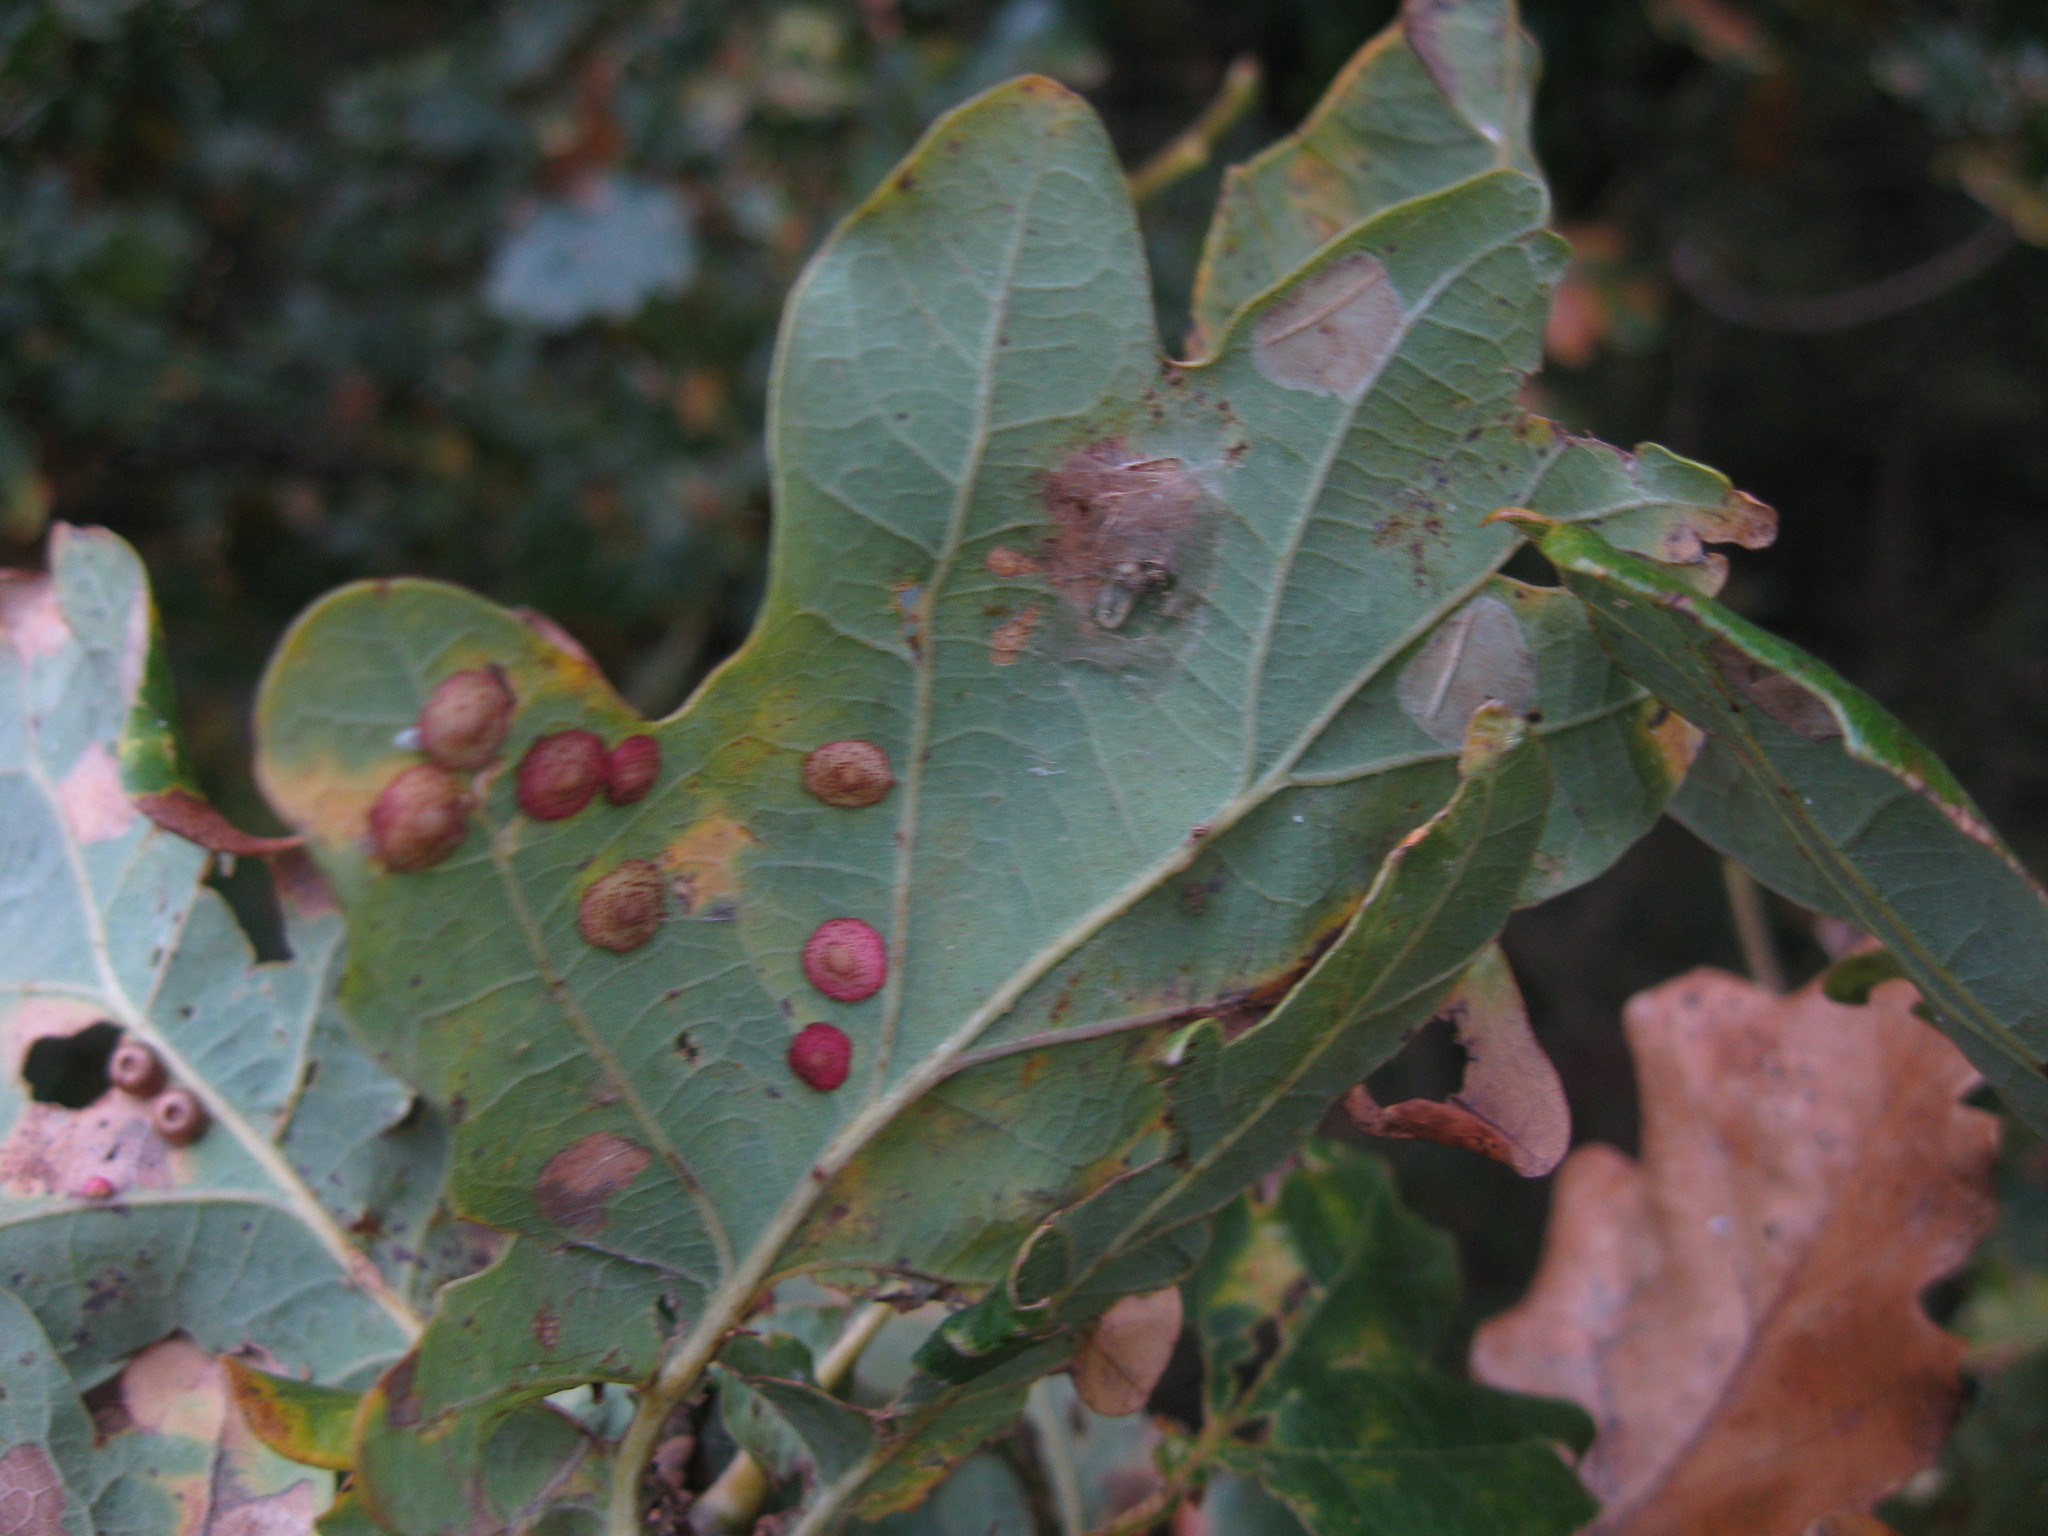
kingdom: Animalia
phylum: Arthropoda
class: Insecta
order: Hymenoptera
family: Cynipidae
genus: Neuroterus
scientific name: Neuroterus quercusbaccarum
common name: Common spangle gall
